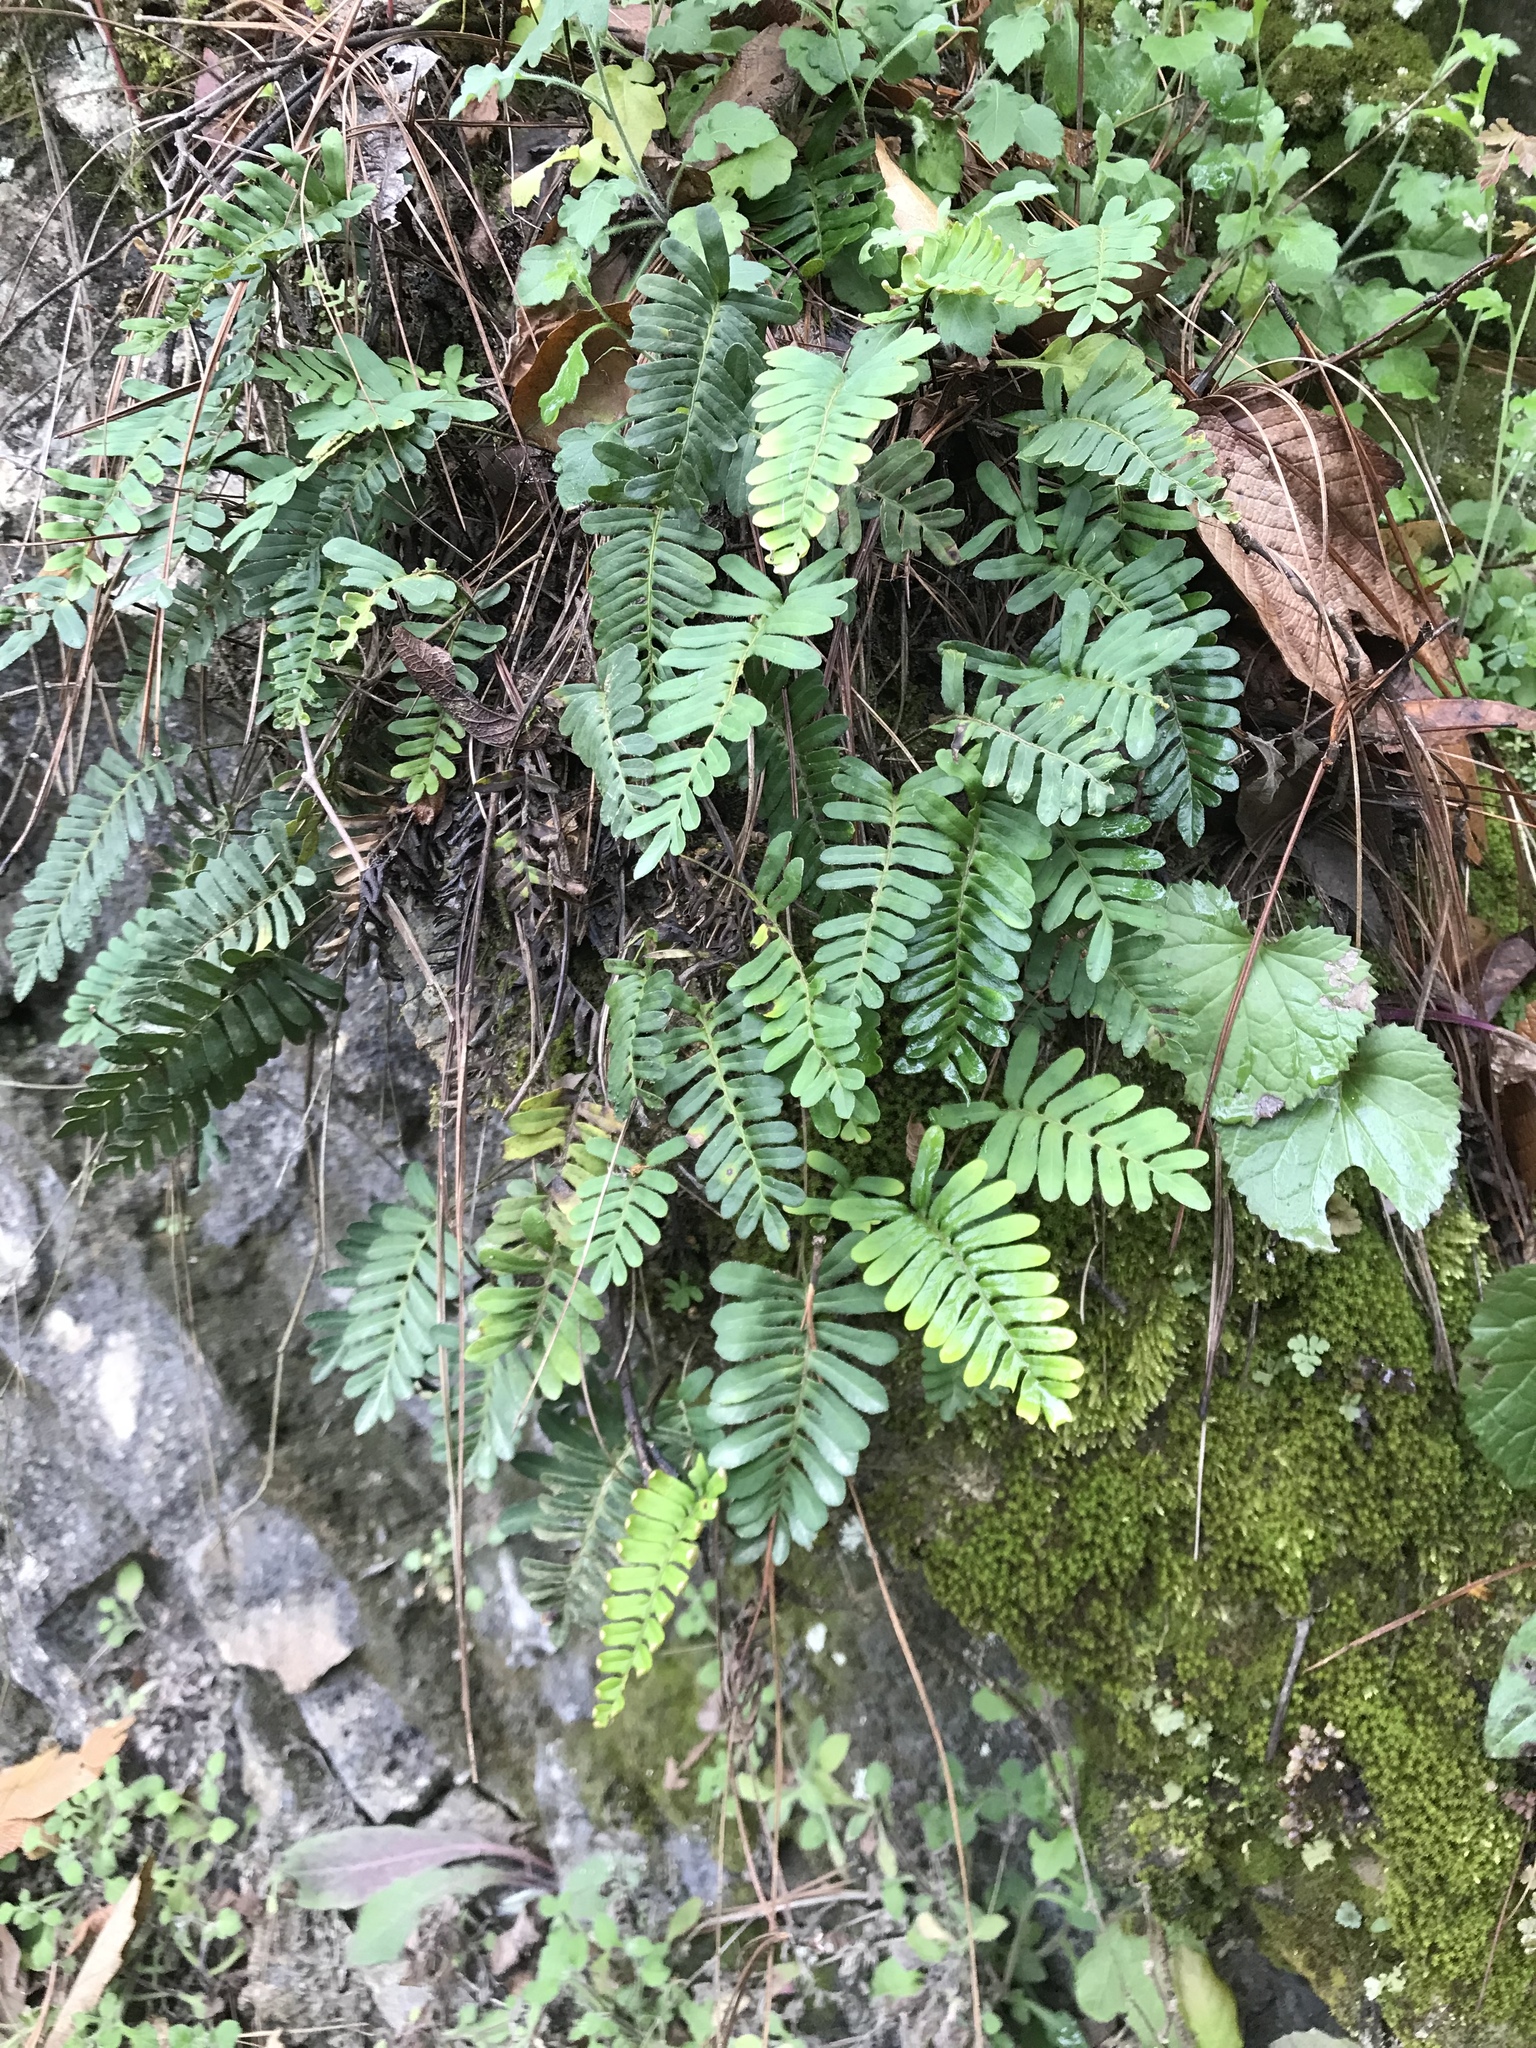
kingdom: Plantae
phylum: Tracheophyta
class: Polypodiopsida
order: Polypodiales
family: Polypodiaceae
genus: Pleopeltis
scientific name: Pleopeltis michauxiana
